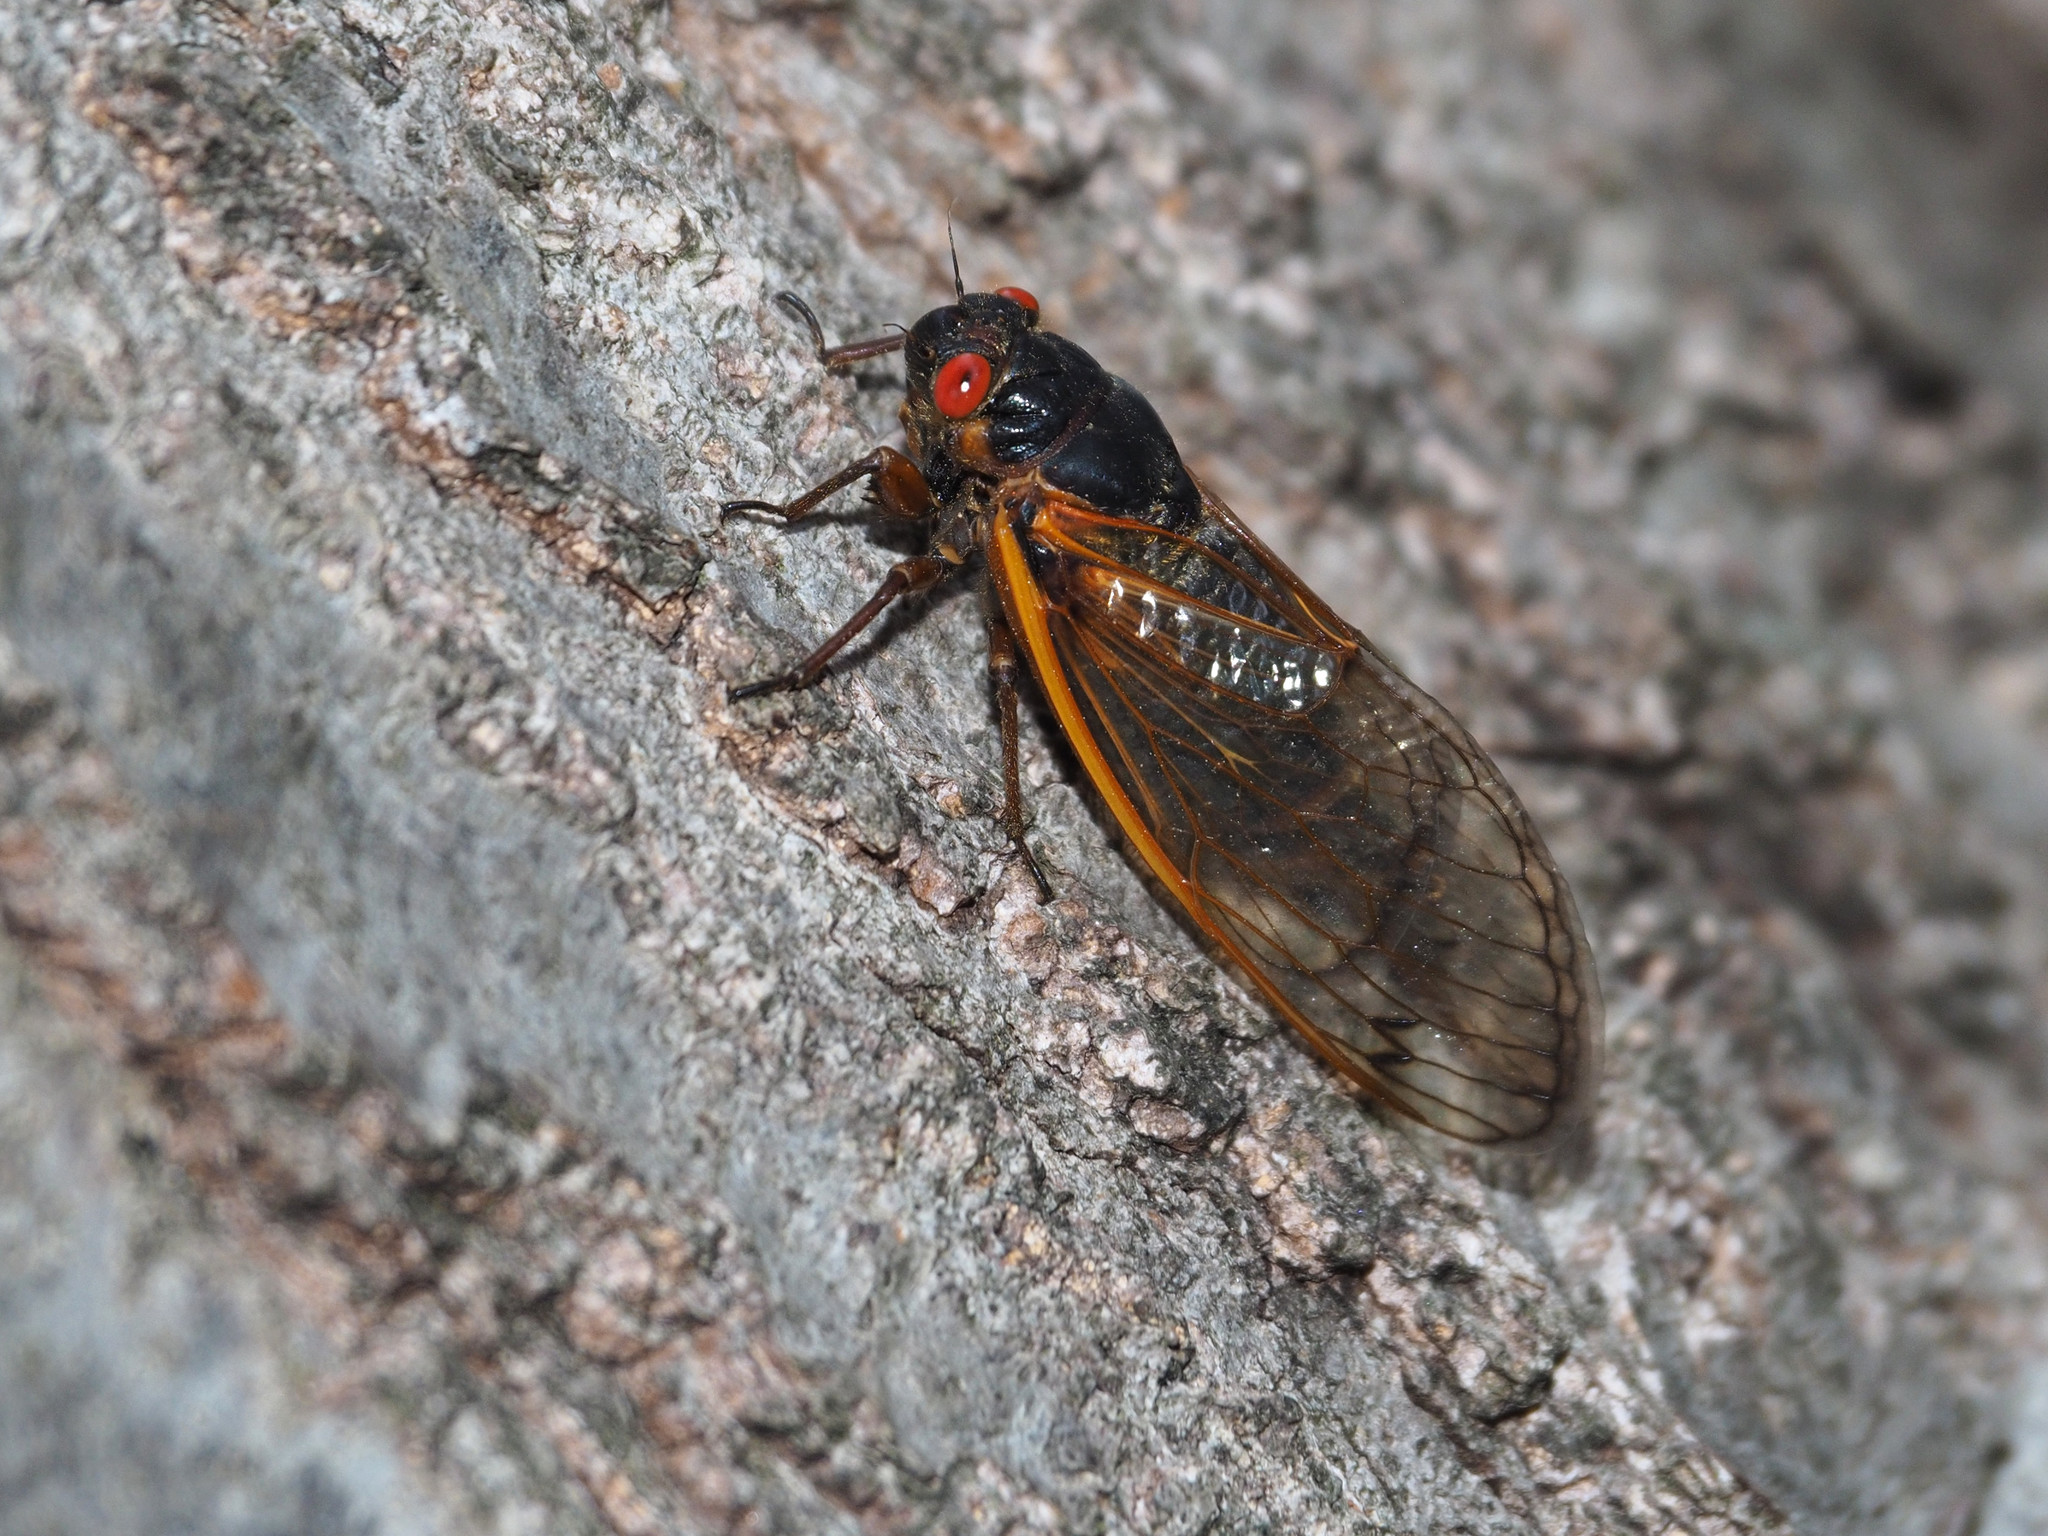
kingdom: Animalia
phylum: Arthropoda
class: Insecta
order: Hemiptera
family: Cicadidae
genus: Magicicada
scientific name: Magicicada septendecim
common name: Periodical cicada
